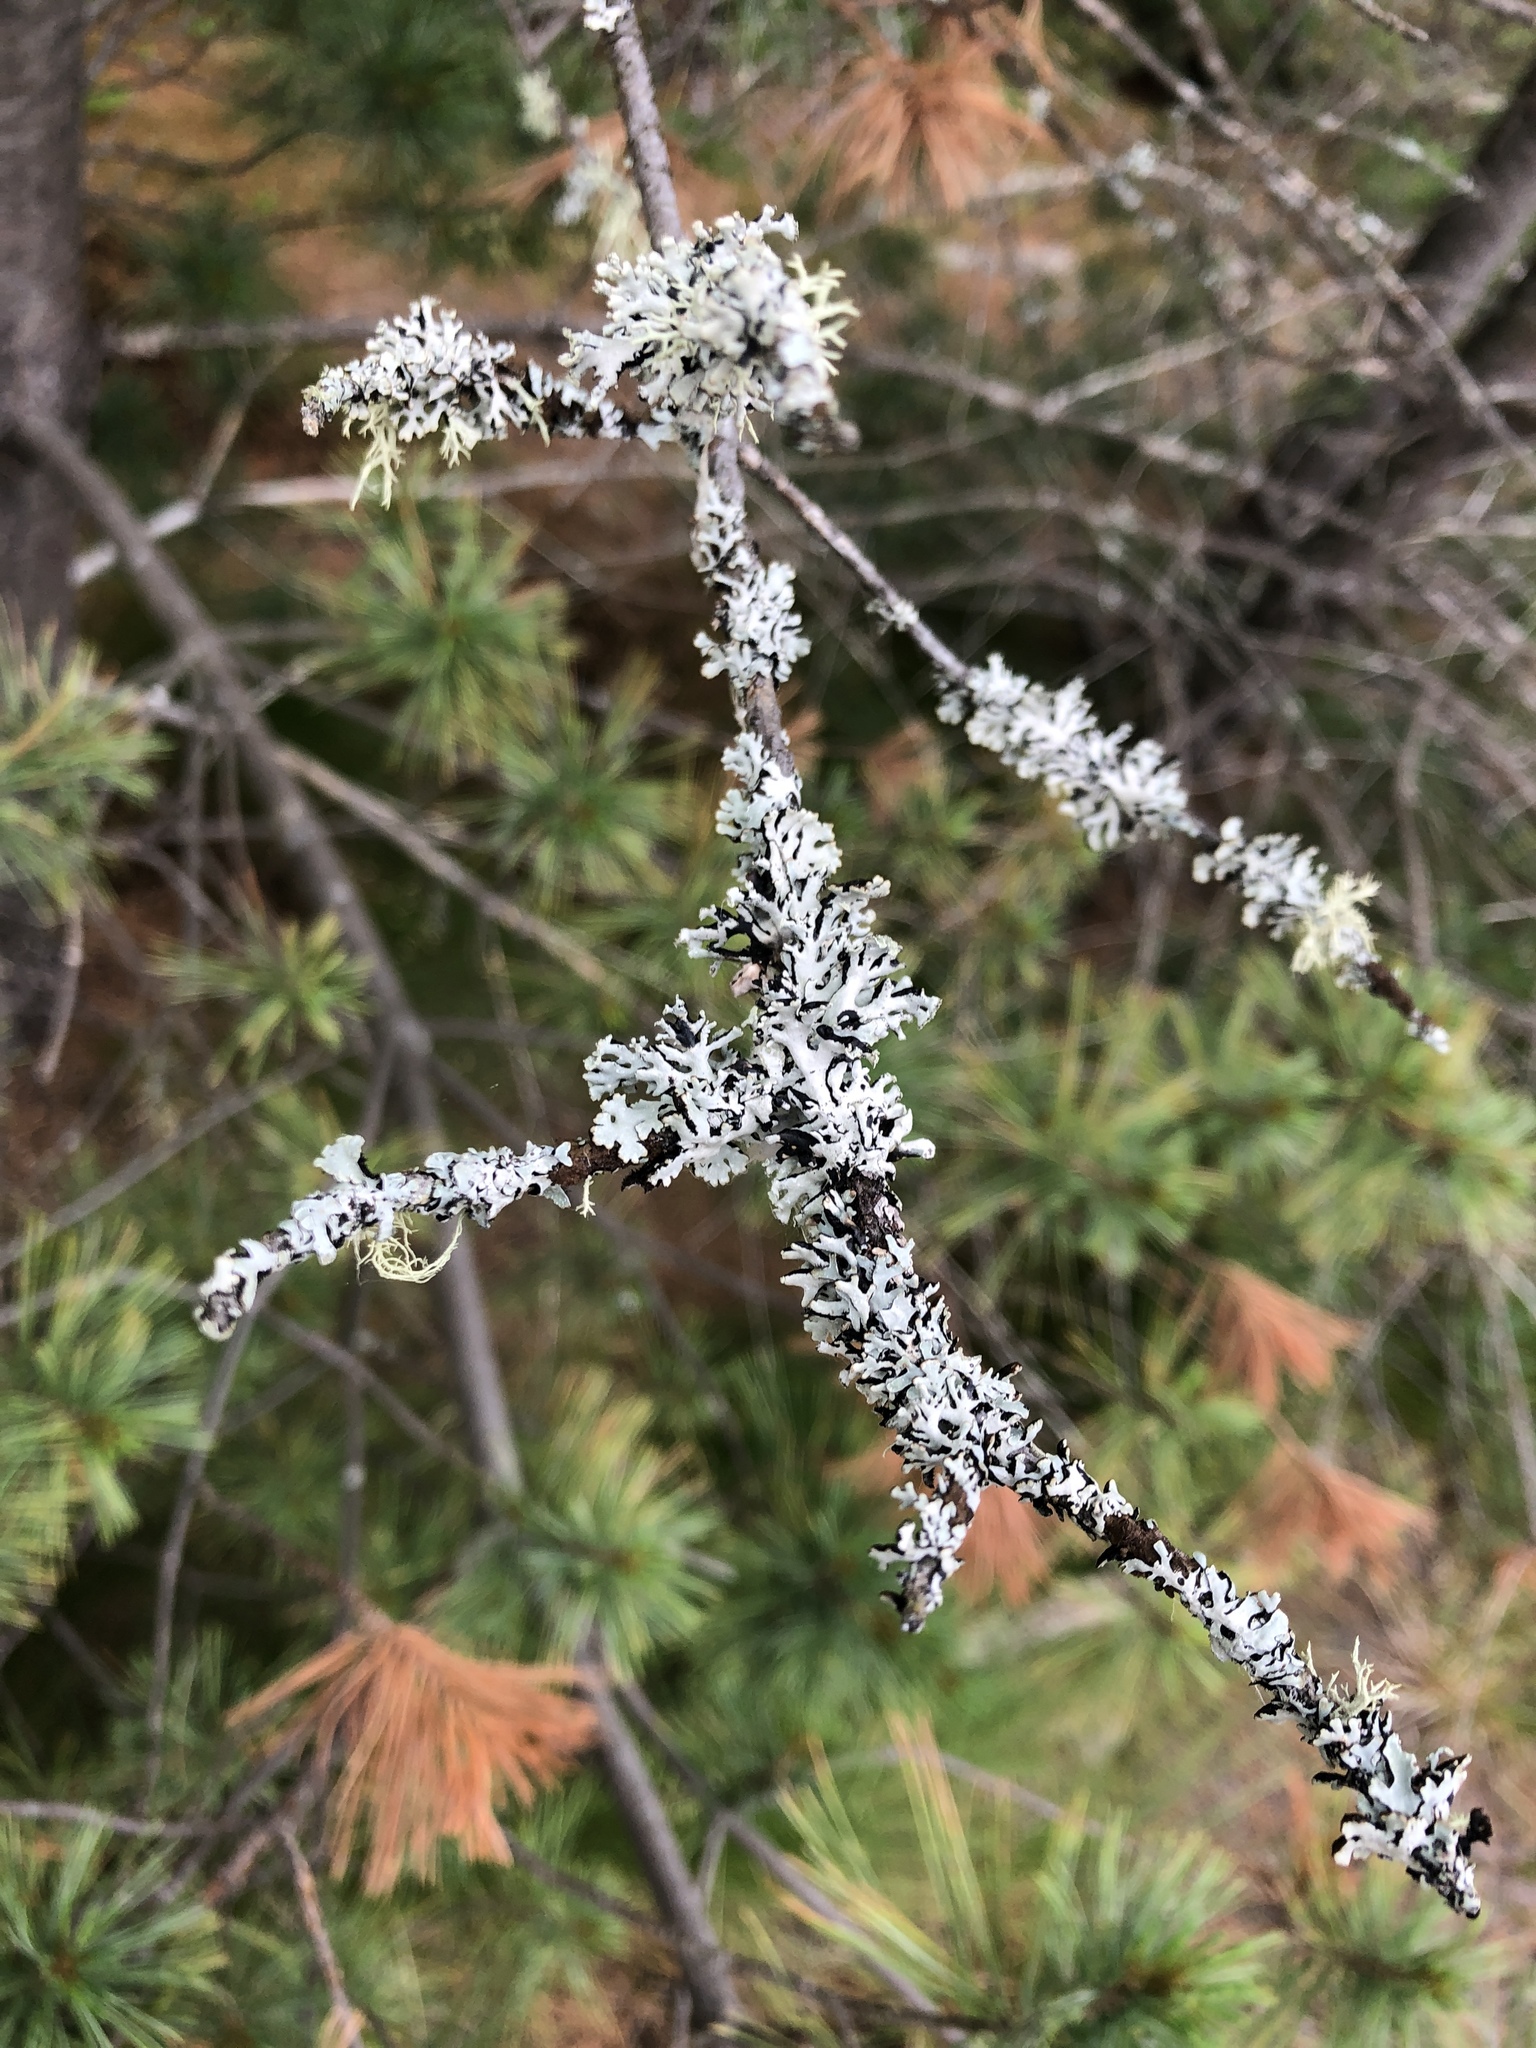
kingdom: Fungi
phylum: Ascomycota
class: Lecanoromycetes
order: Lecanorales
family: Parmeliaceae
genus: Hypogymnia
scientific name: Hypogymnia physodes
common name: Dark crottle
